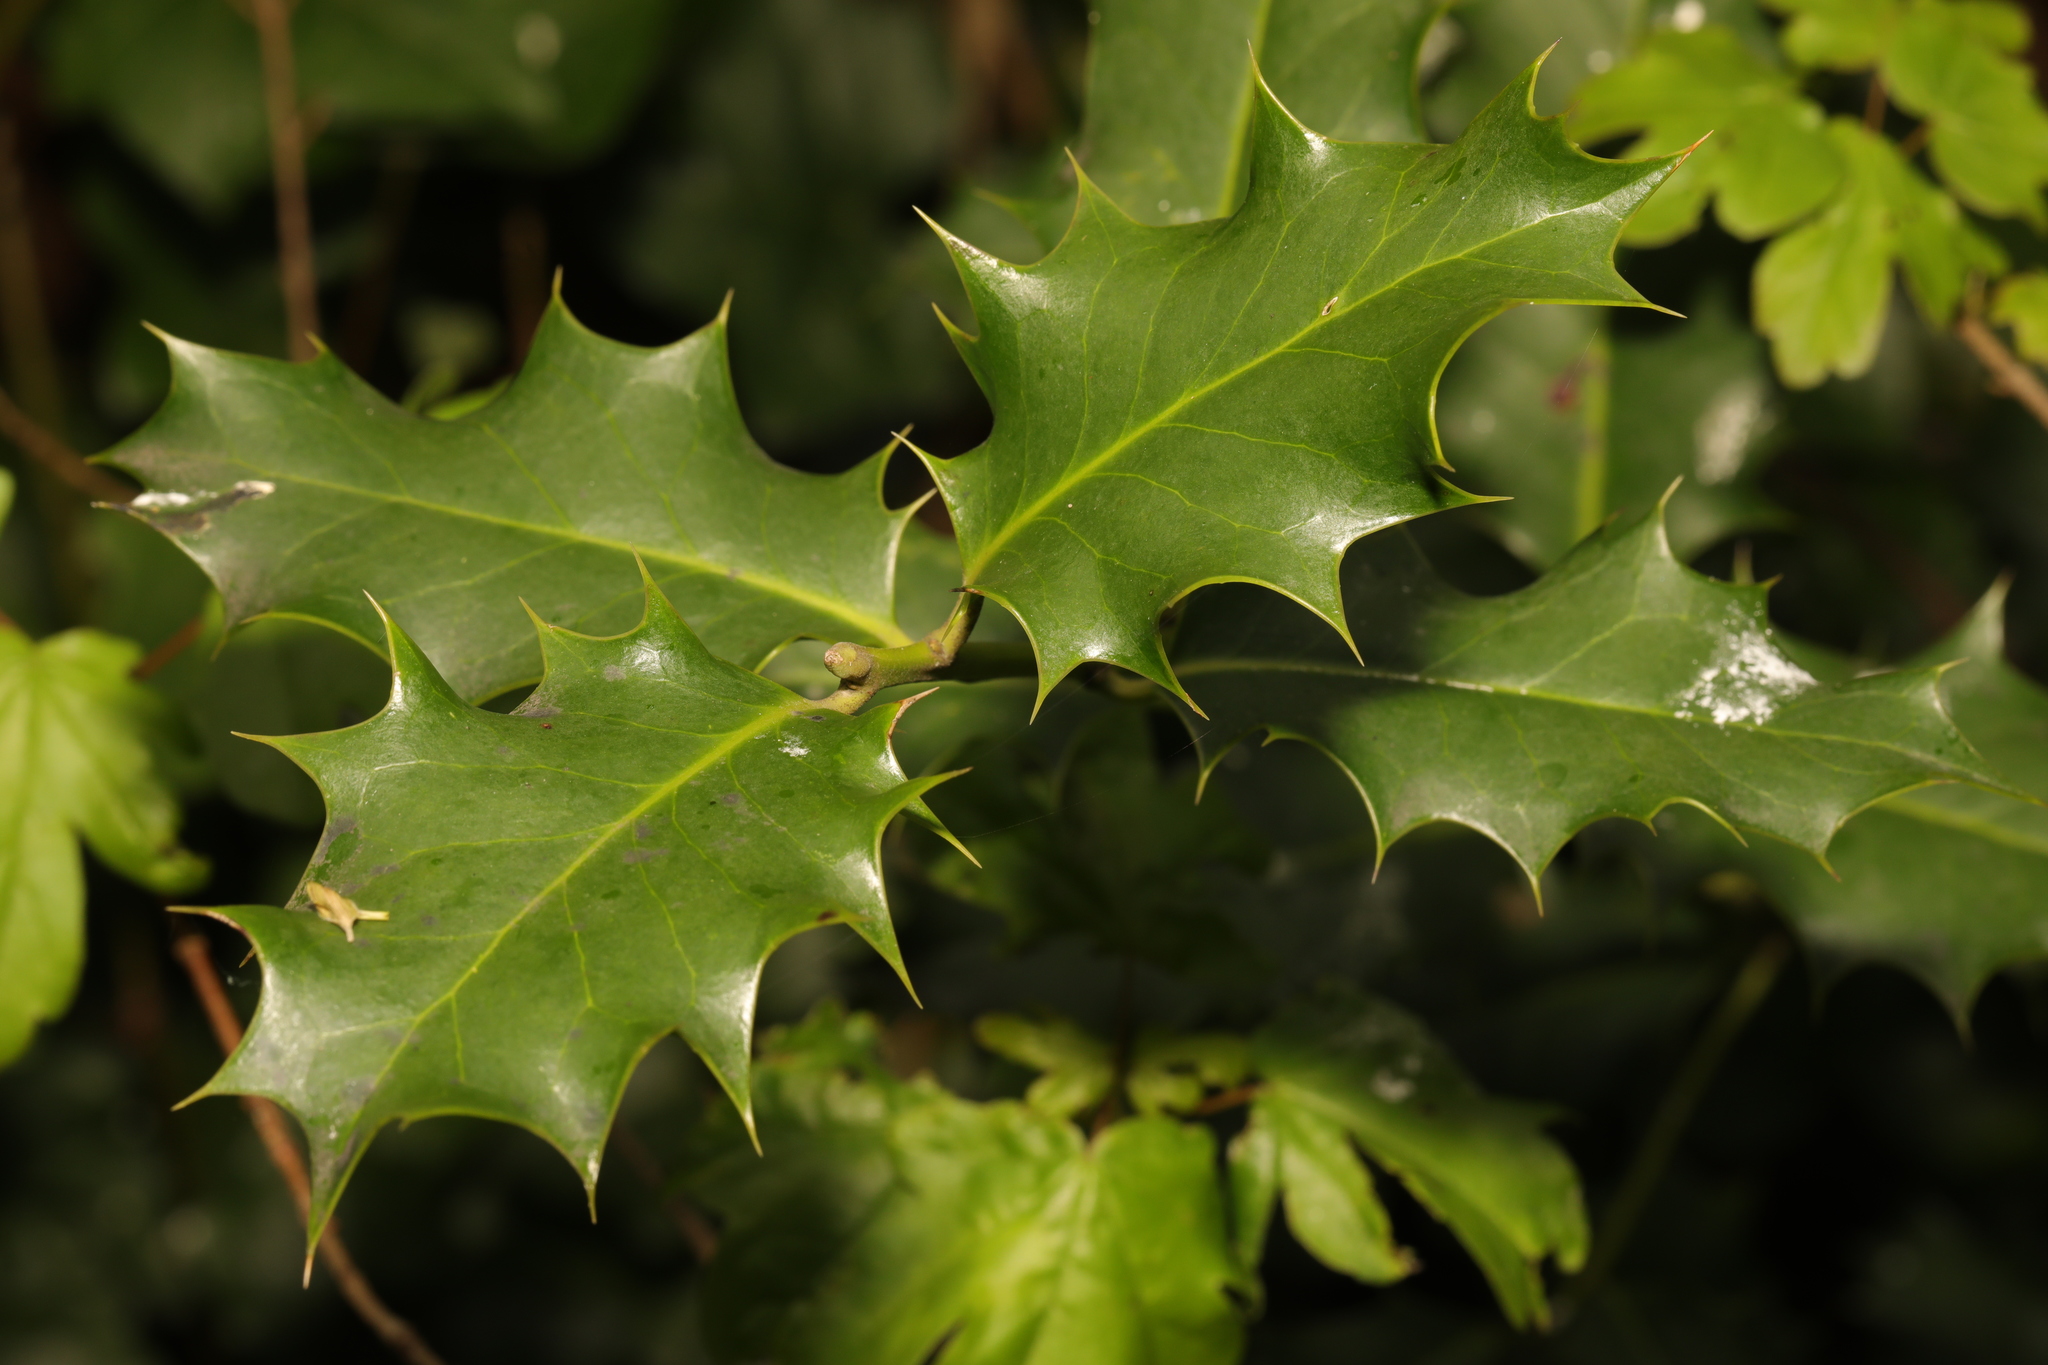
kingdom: Plantae
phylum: Tracheophyta
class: Magnoliopsida
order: Aquifoliales
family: Aquifoliaceae
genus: Ilex
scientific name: Ilex aquifolium
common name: English holly
